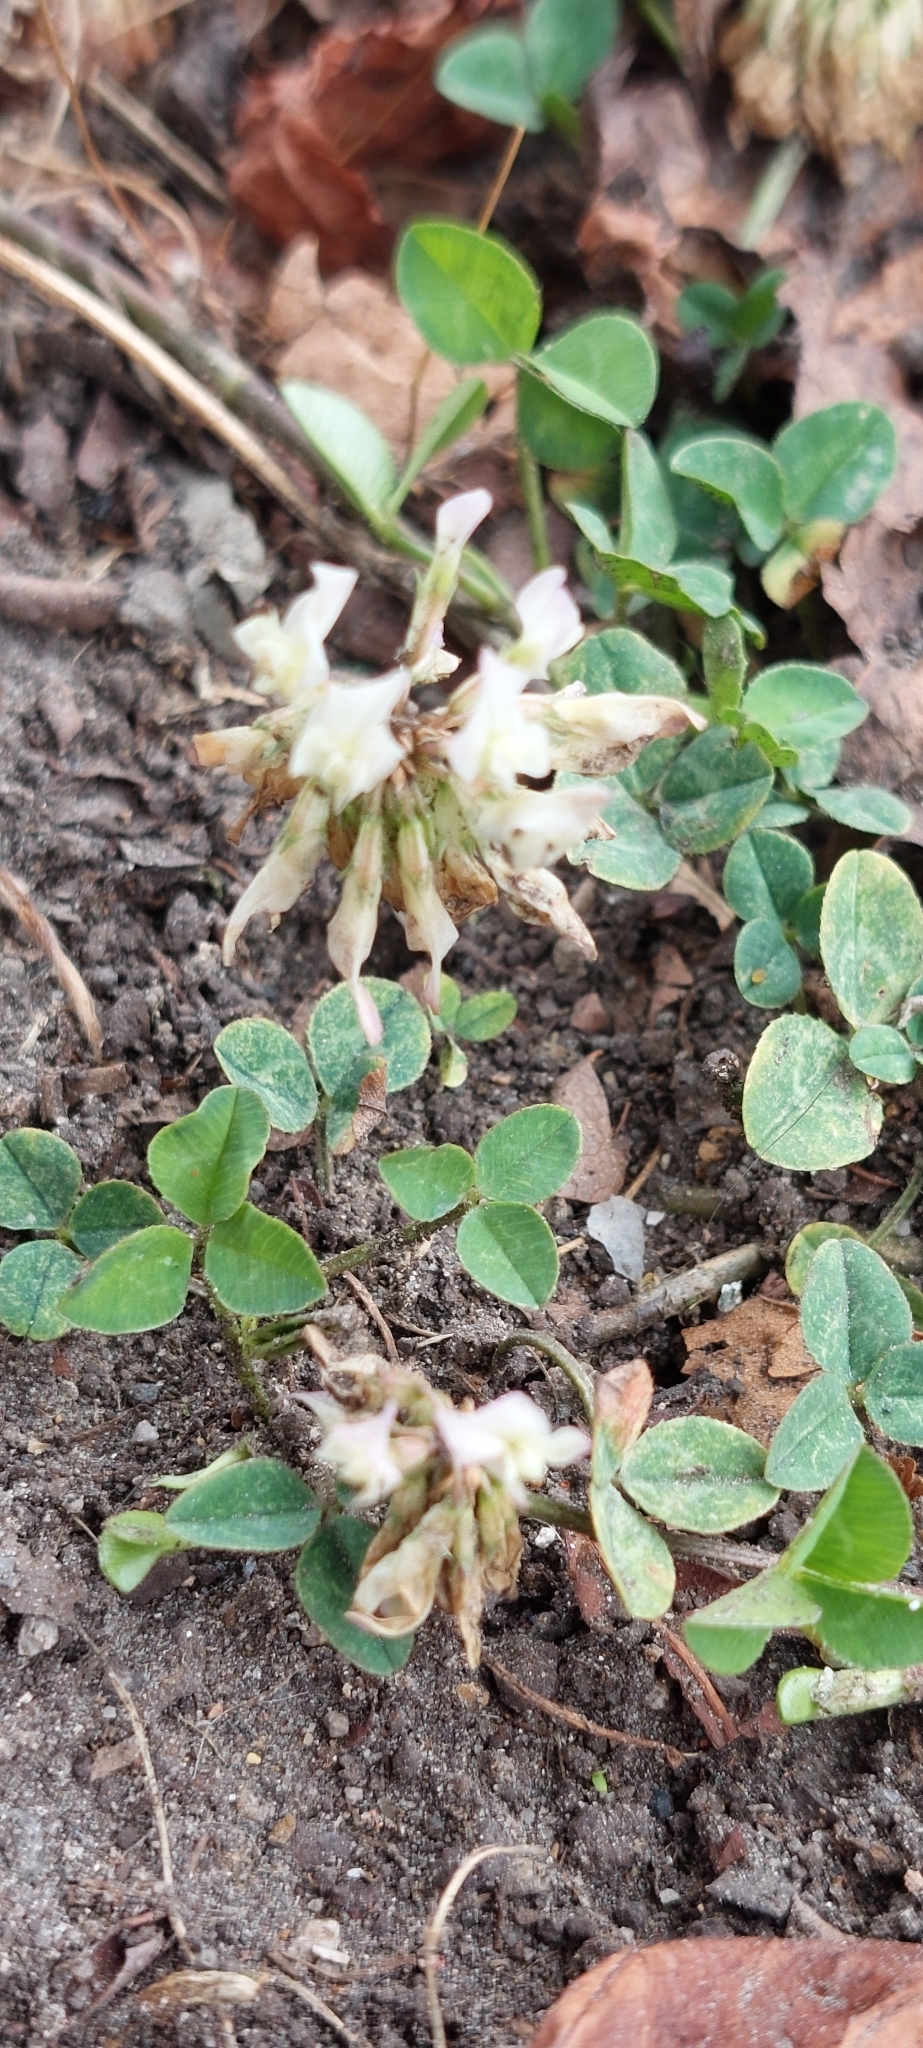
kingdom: Plantae
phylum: Tracheophyta
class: Magnoliopsida
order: Fabales
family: Fabaceae
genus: Trifolium
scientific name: Trifolium repens
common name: White clover
